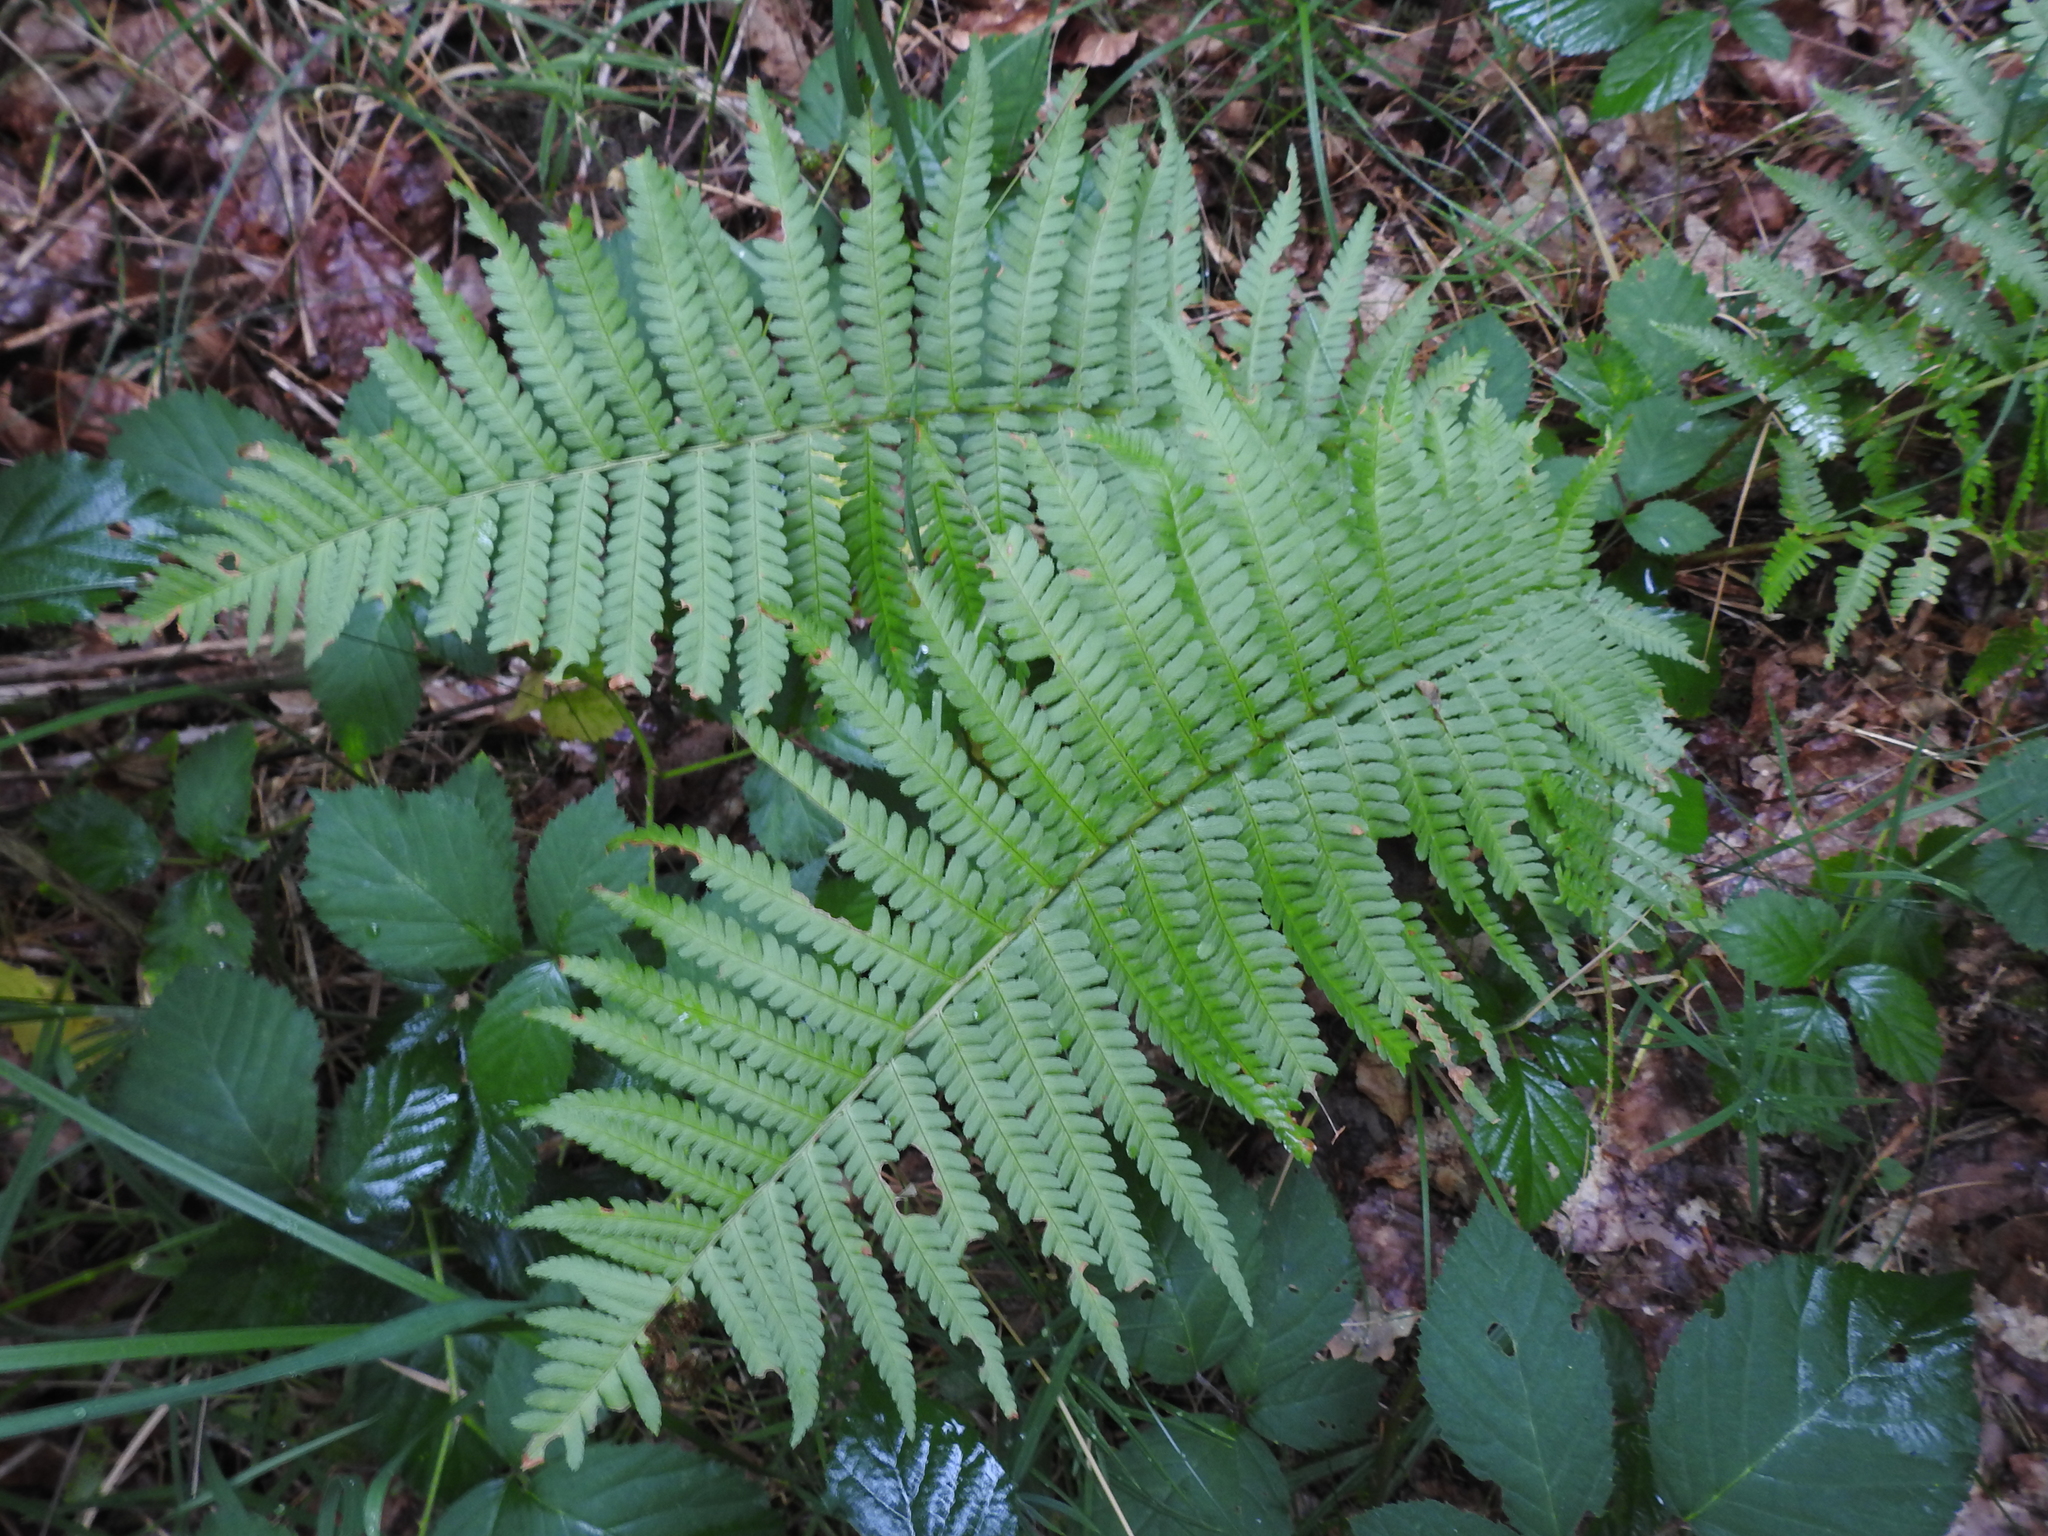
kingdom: Plantae
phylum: Tracheophyta
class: Polypodiopsida
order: Polypodiales
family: Dryopteridaceae
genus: Dryopteris
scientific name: Dryopteris filix-mas
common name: Male fern
